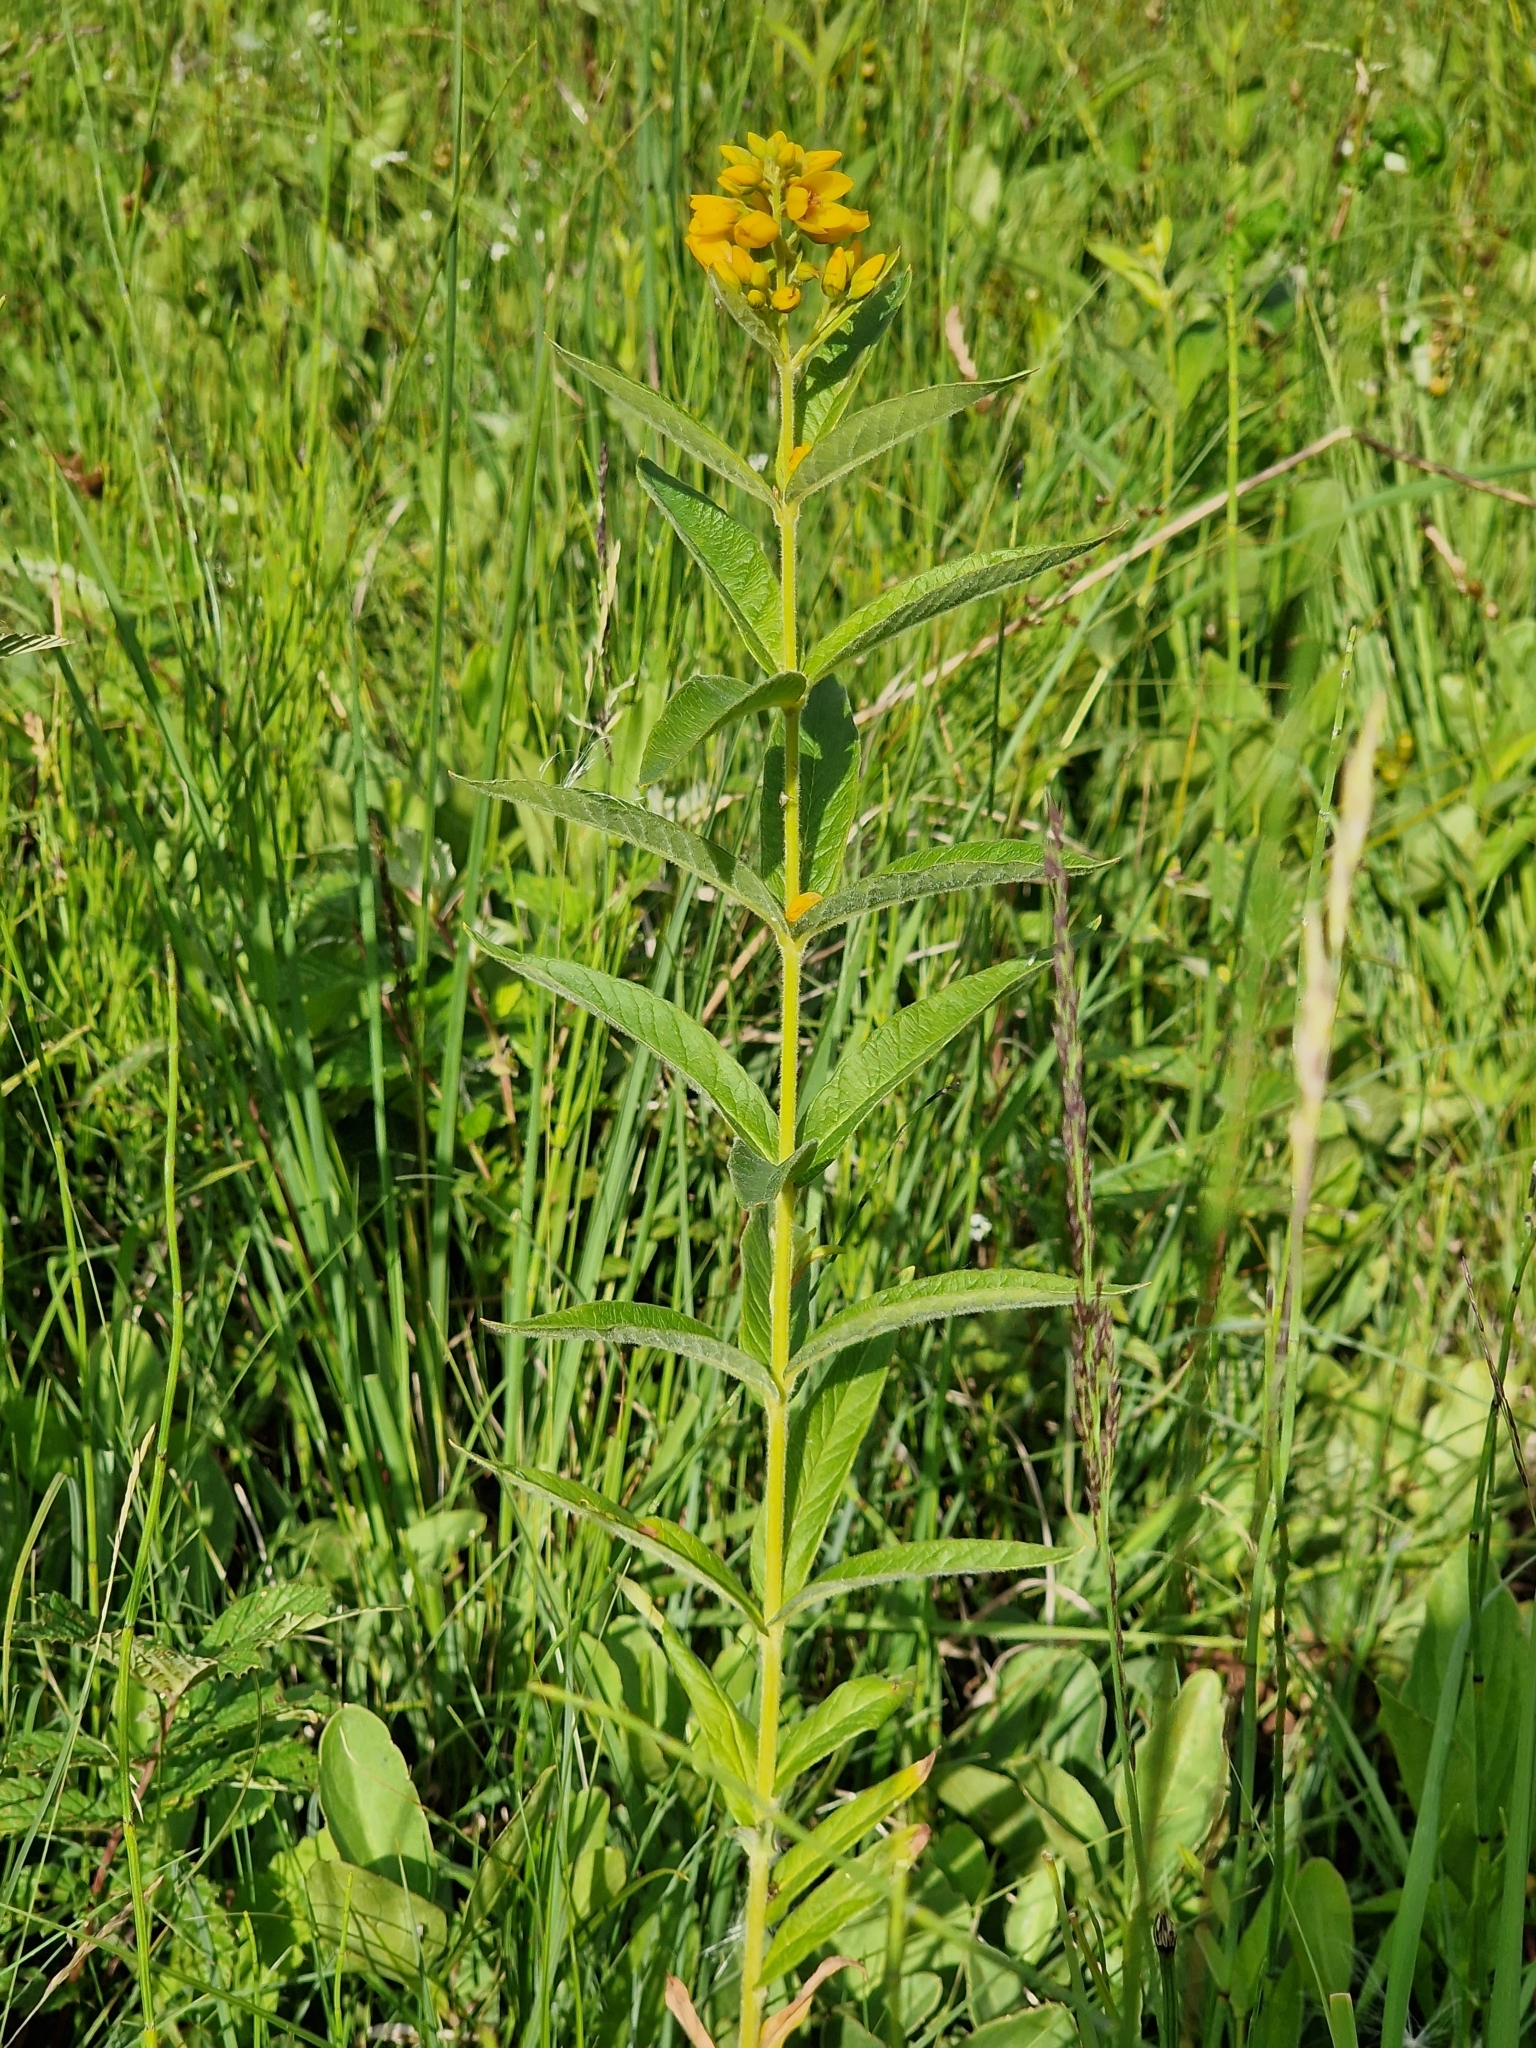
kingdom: Plantae
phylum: Tracheophyta
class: Magnoliopsida
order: Ericales
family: Primulaceae
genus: Lysimachia
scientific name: Lysimachia vulgaris
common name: Yellow loosestrife
